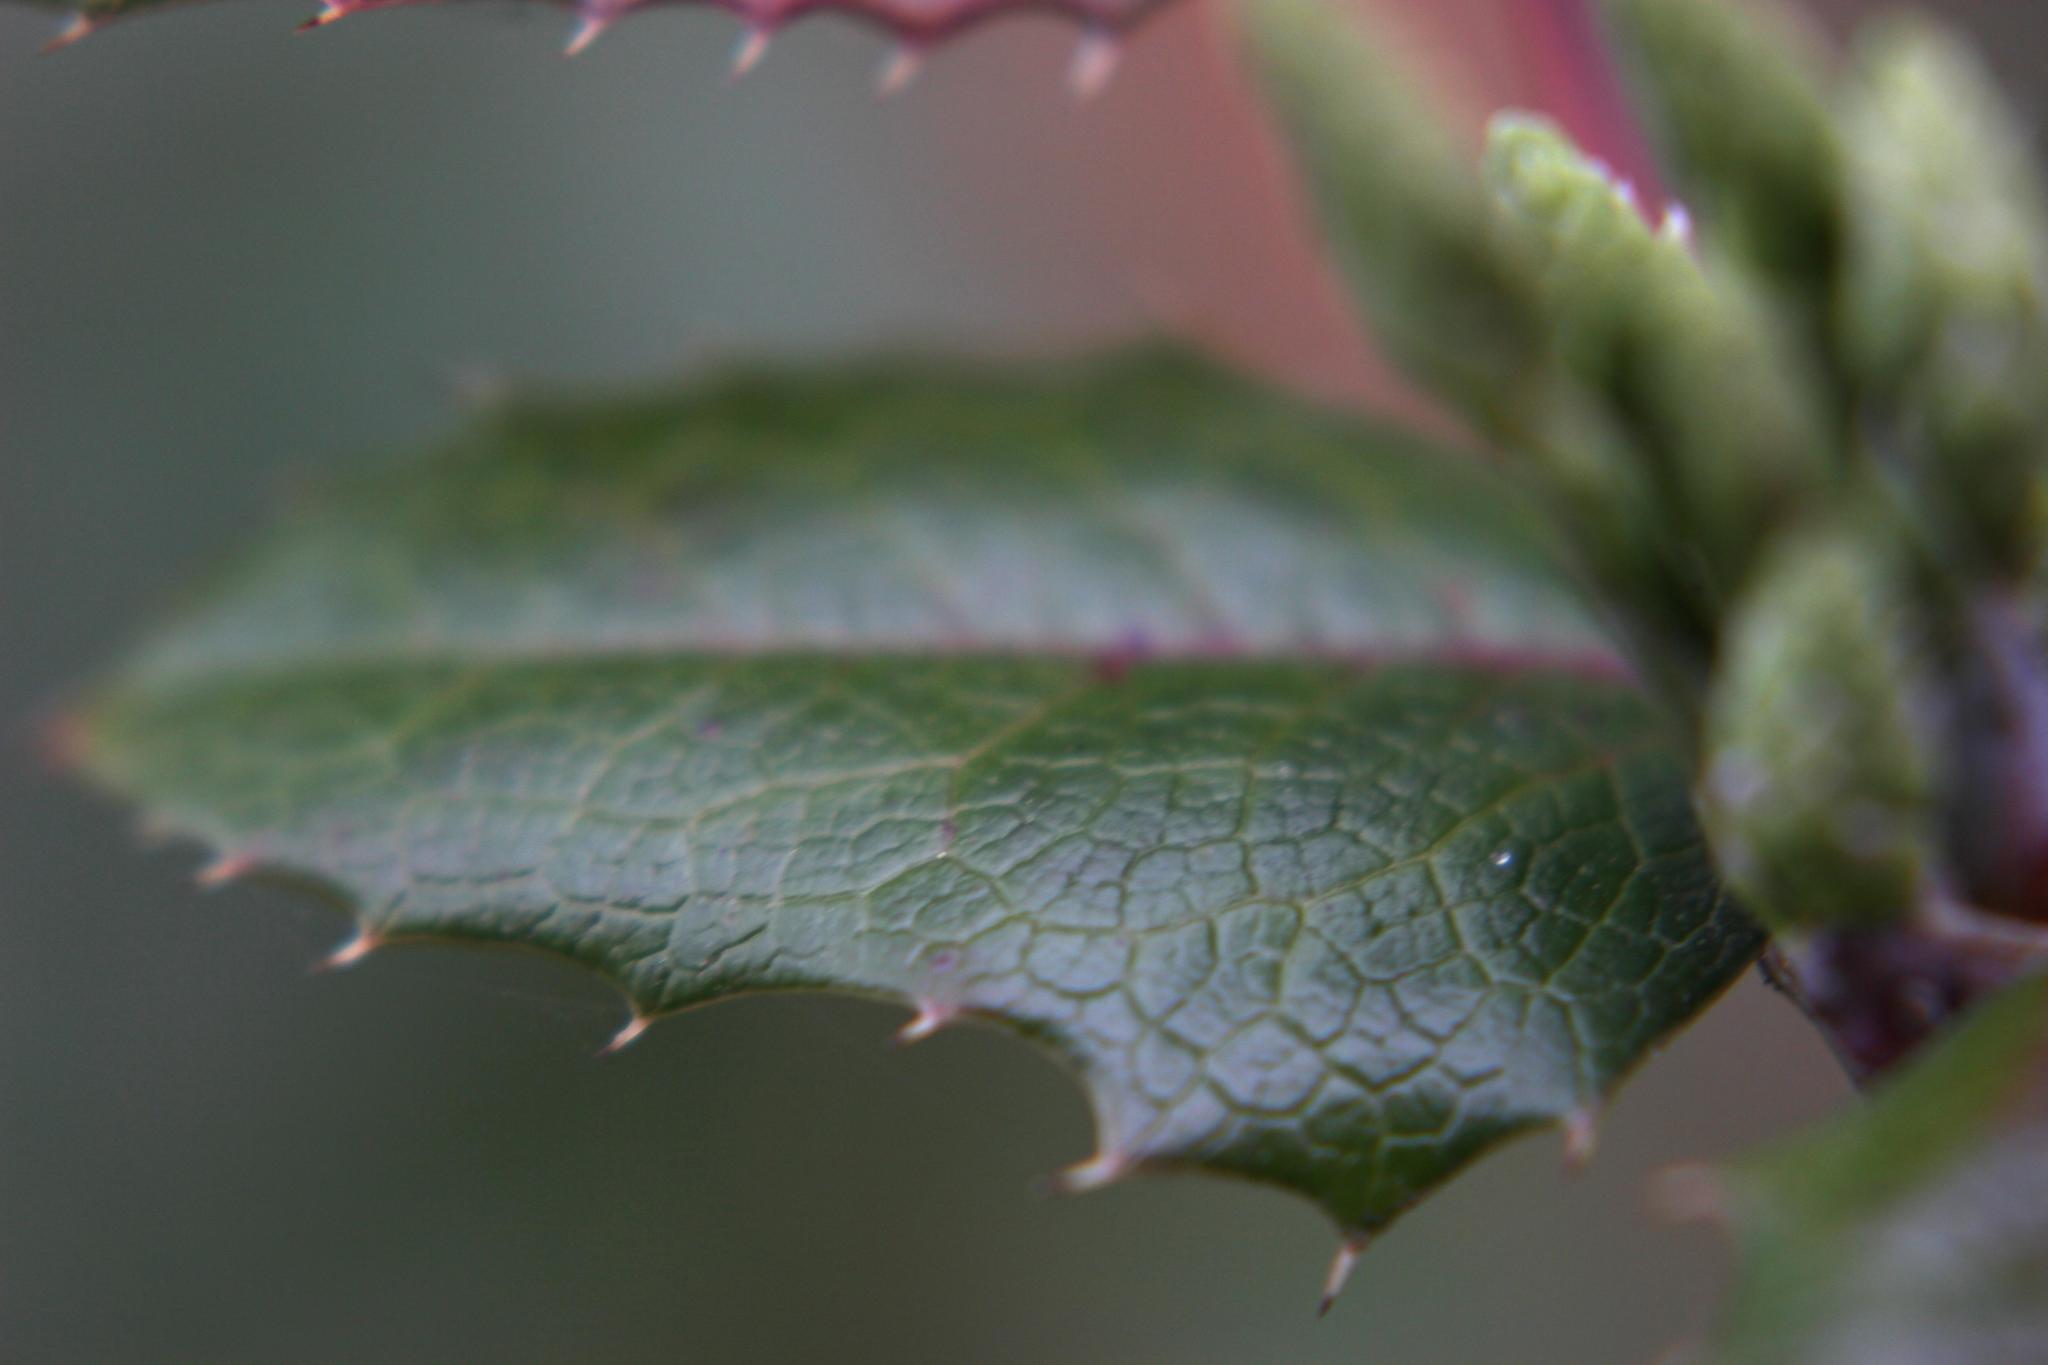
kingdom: Plantae
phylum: Tracheophyta
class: Magnoliopsida
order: Ranunculales
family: Berberidaceae
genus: Mahonia
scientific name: Mahonia aquifolium
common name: Oregon-grape
